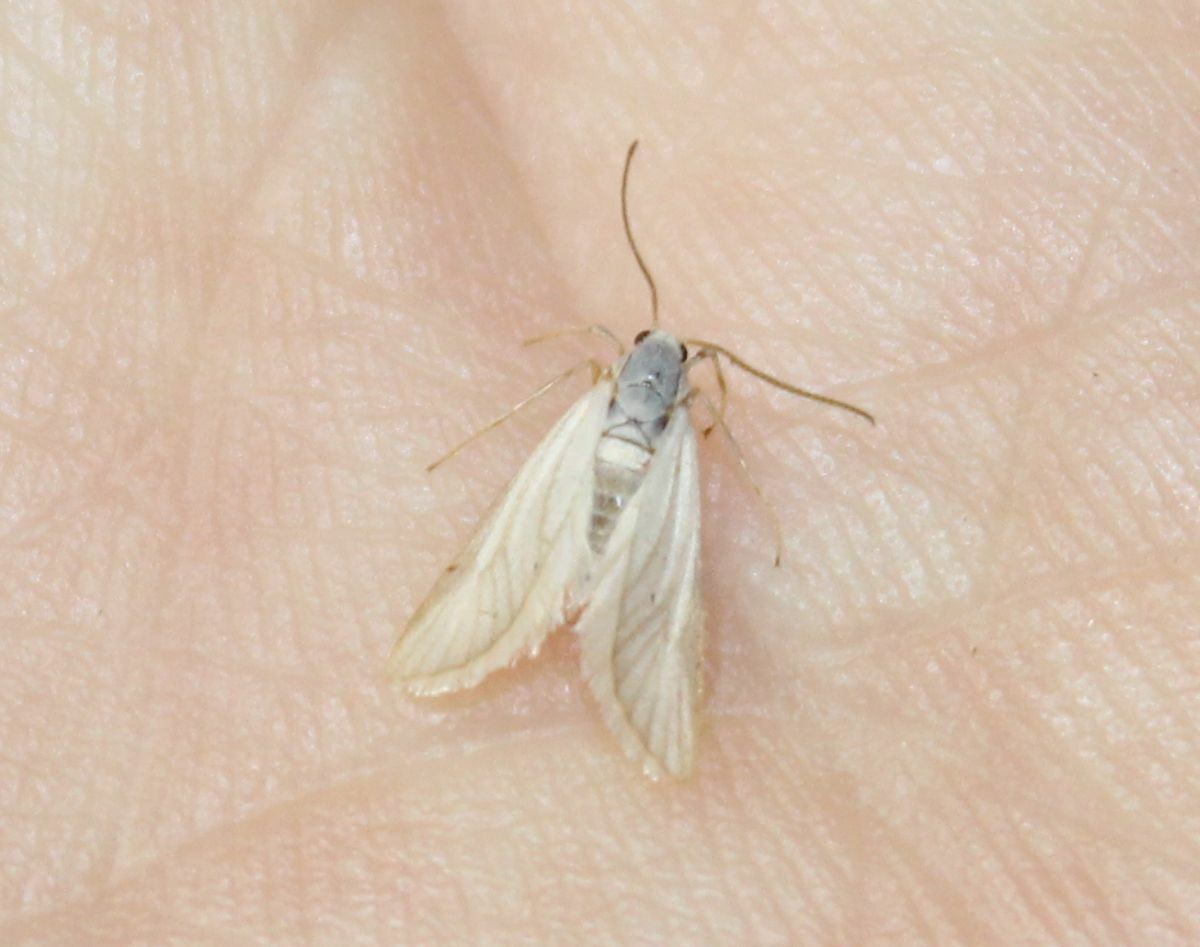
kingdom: Animalia
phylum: Arthropoda
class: Insecta
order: Lepidoptera
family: Crambidae
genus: Acentria
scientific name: Acentria ephemerella
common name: European water moth
